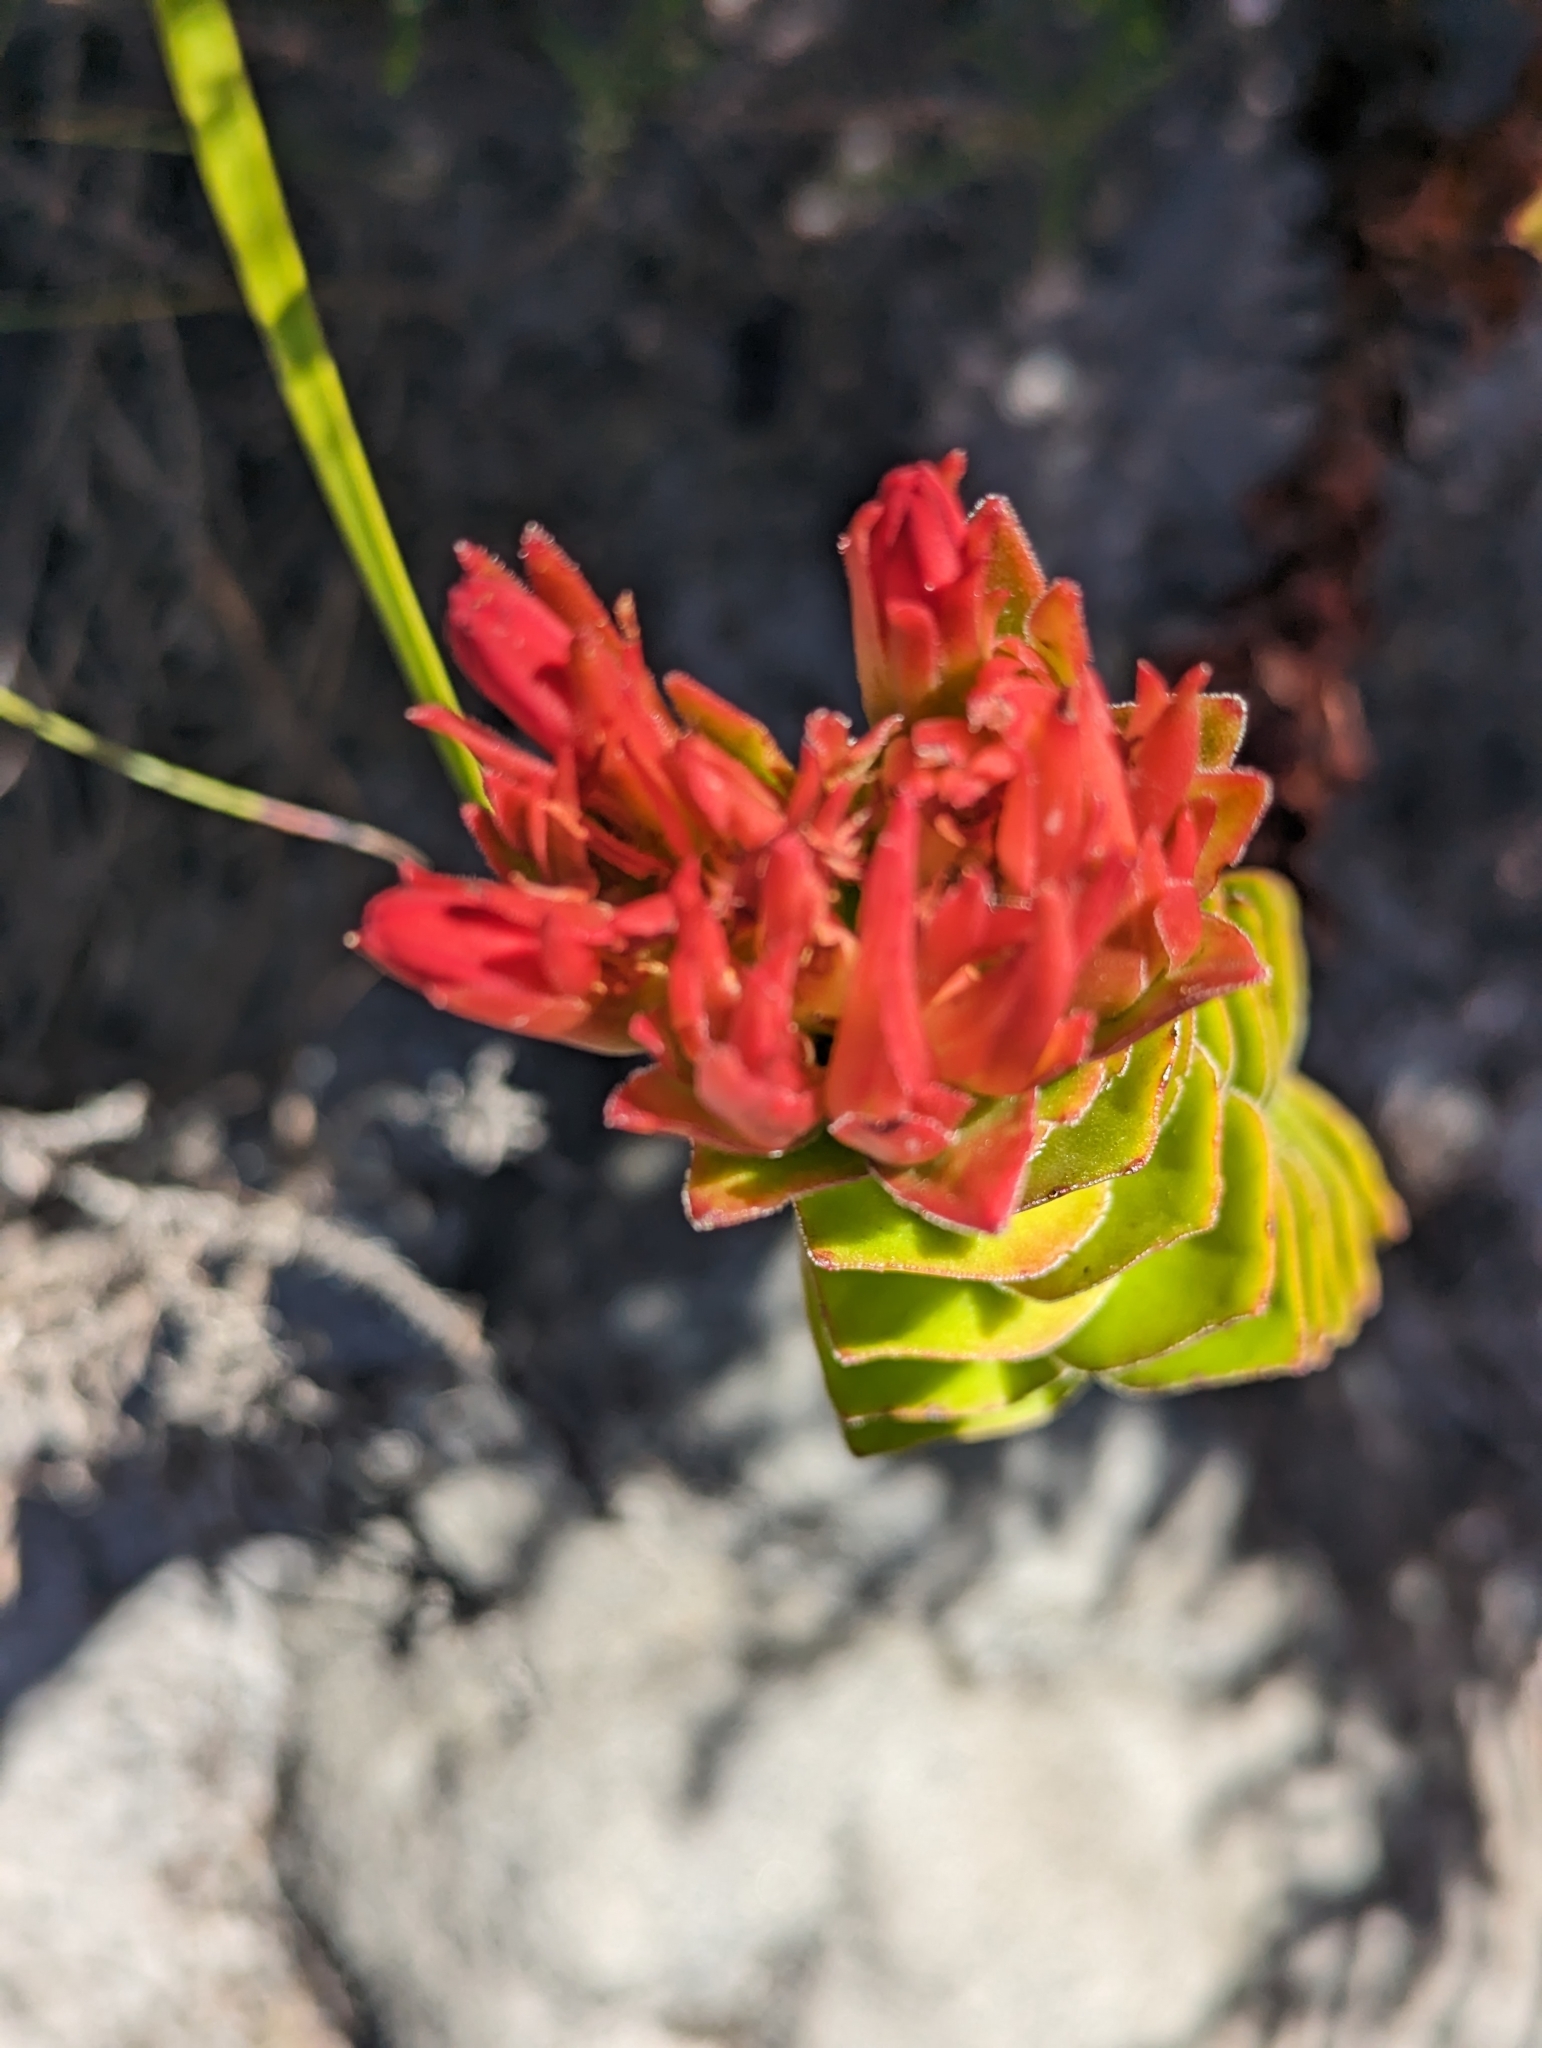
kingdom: Plantae
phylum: Tracheophyta
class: Magnoliopsida
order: Saxifragales
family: Crassulaceae
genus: Crassula
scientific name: Crassula coccinea
